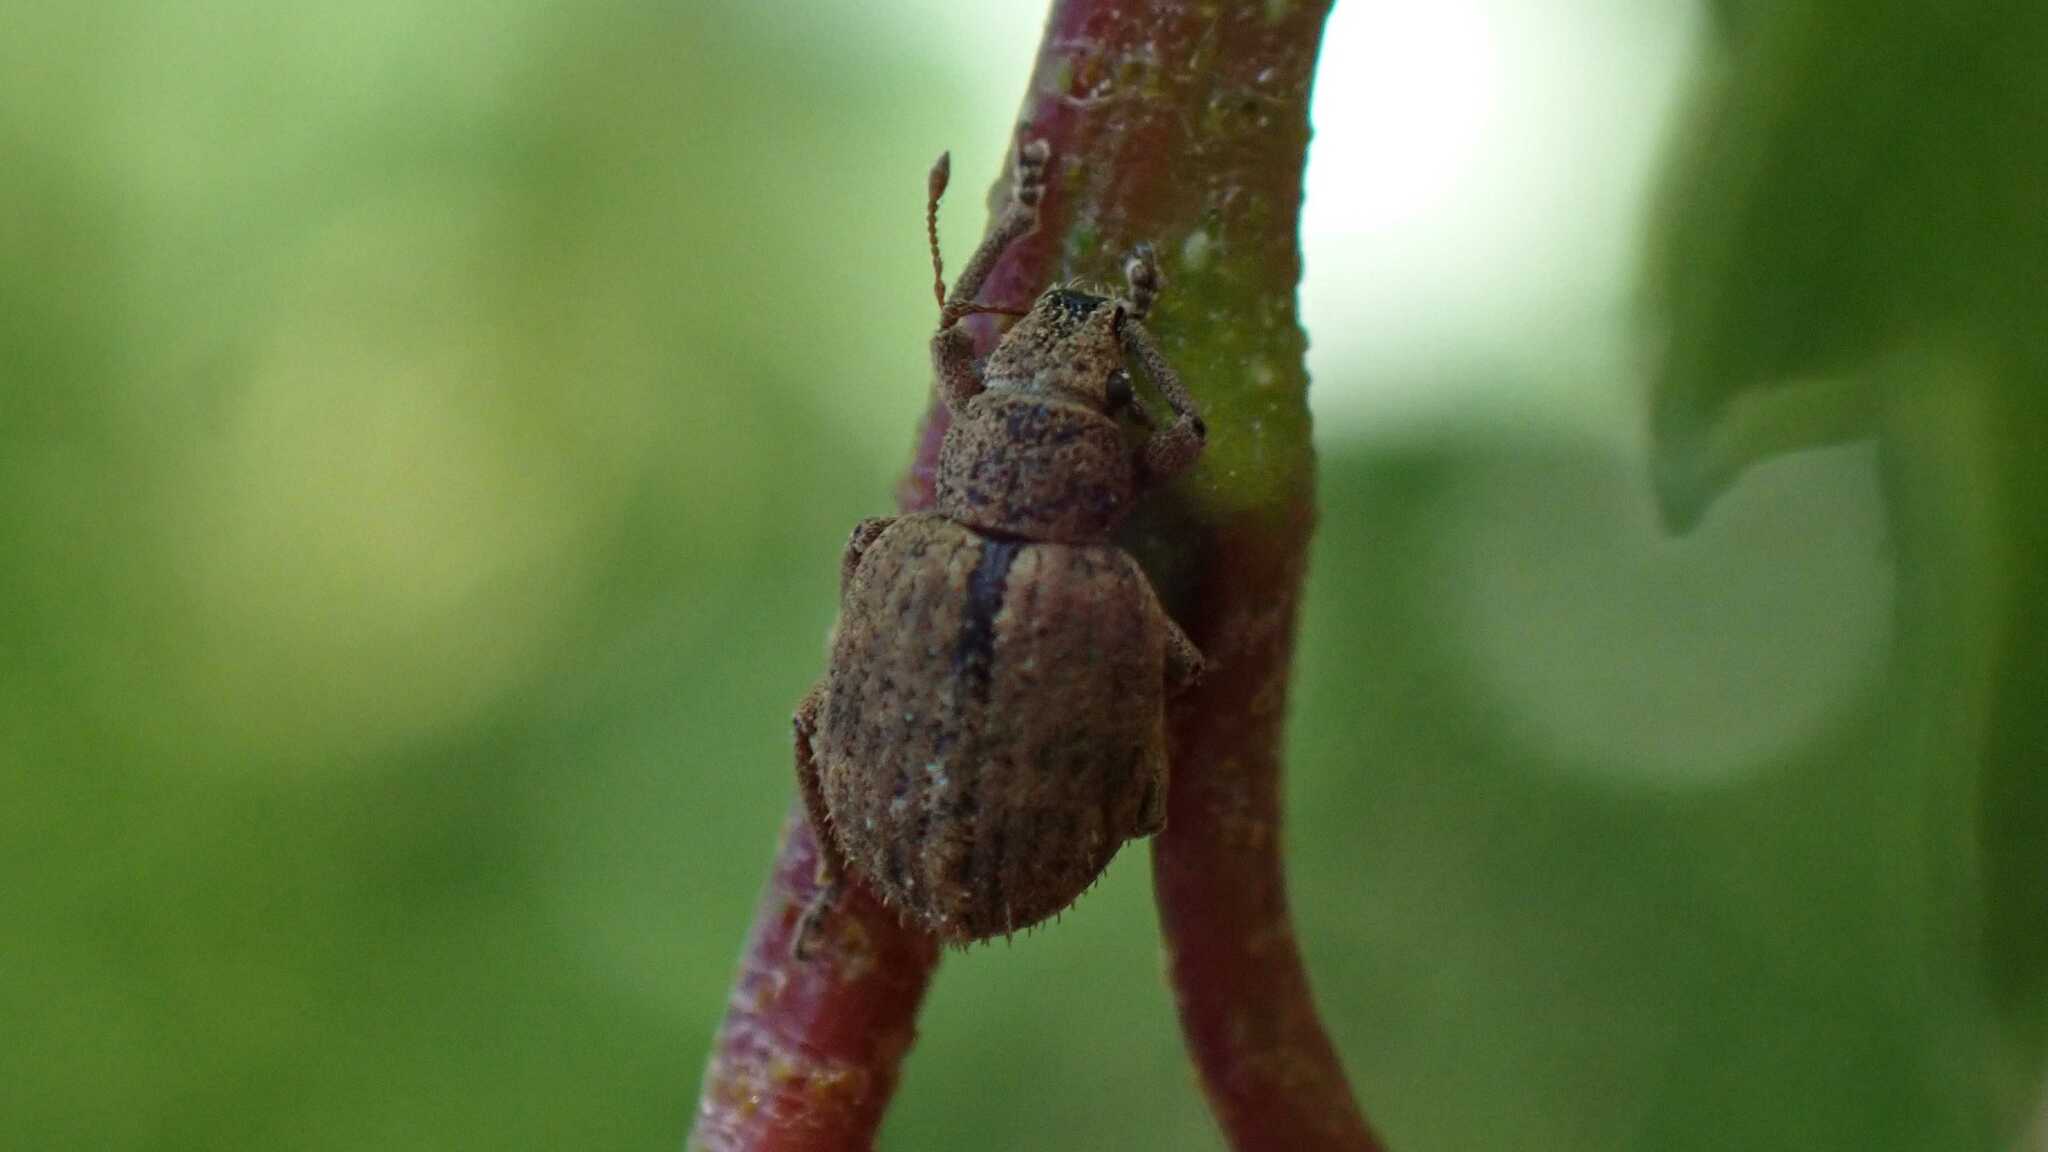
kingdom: Animalia
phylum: Arthropoda
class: Insecta
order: Coleoptera
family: Curculionidae
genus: Strophosoma
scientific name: Strophosoma melanogrammum
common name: Weevil
